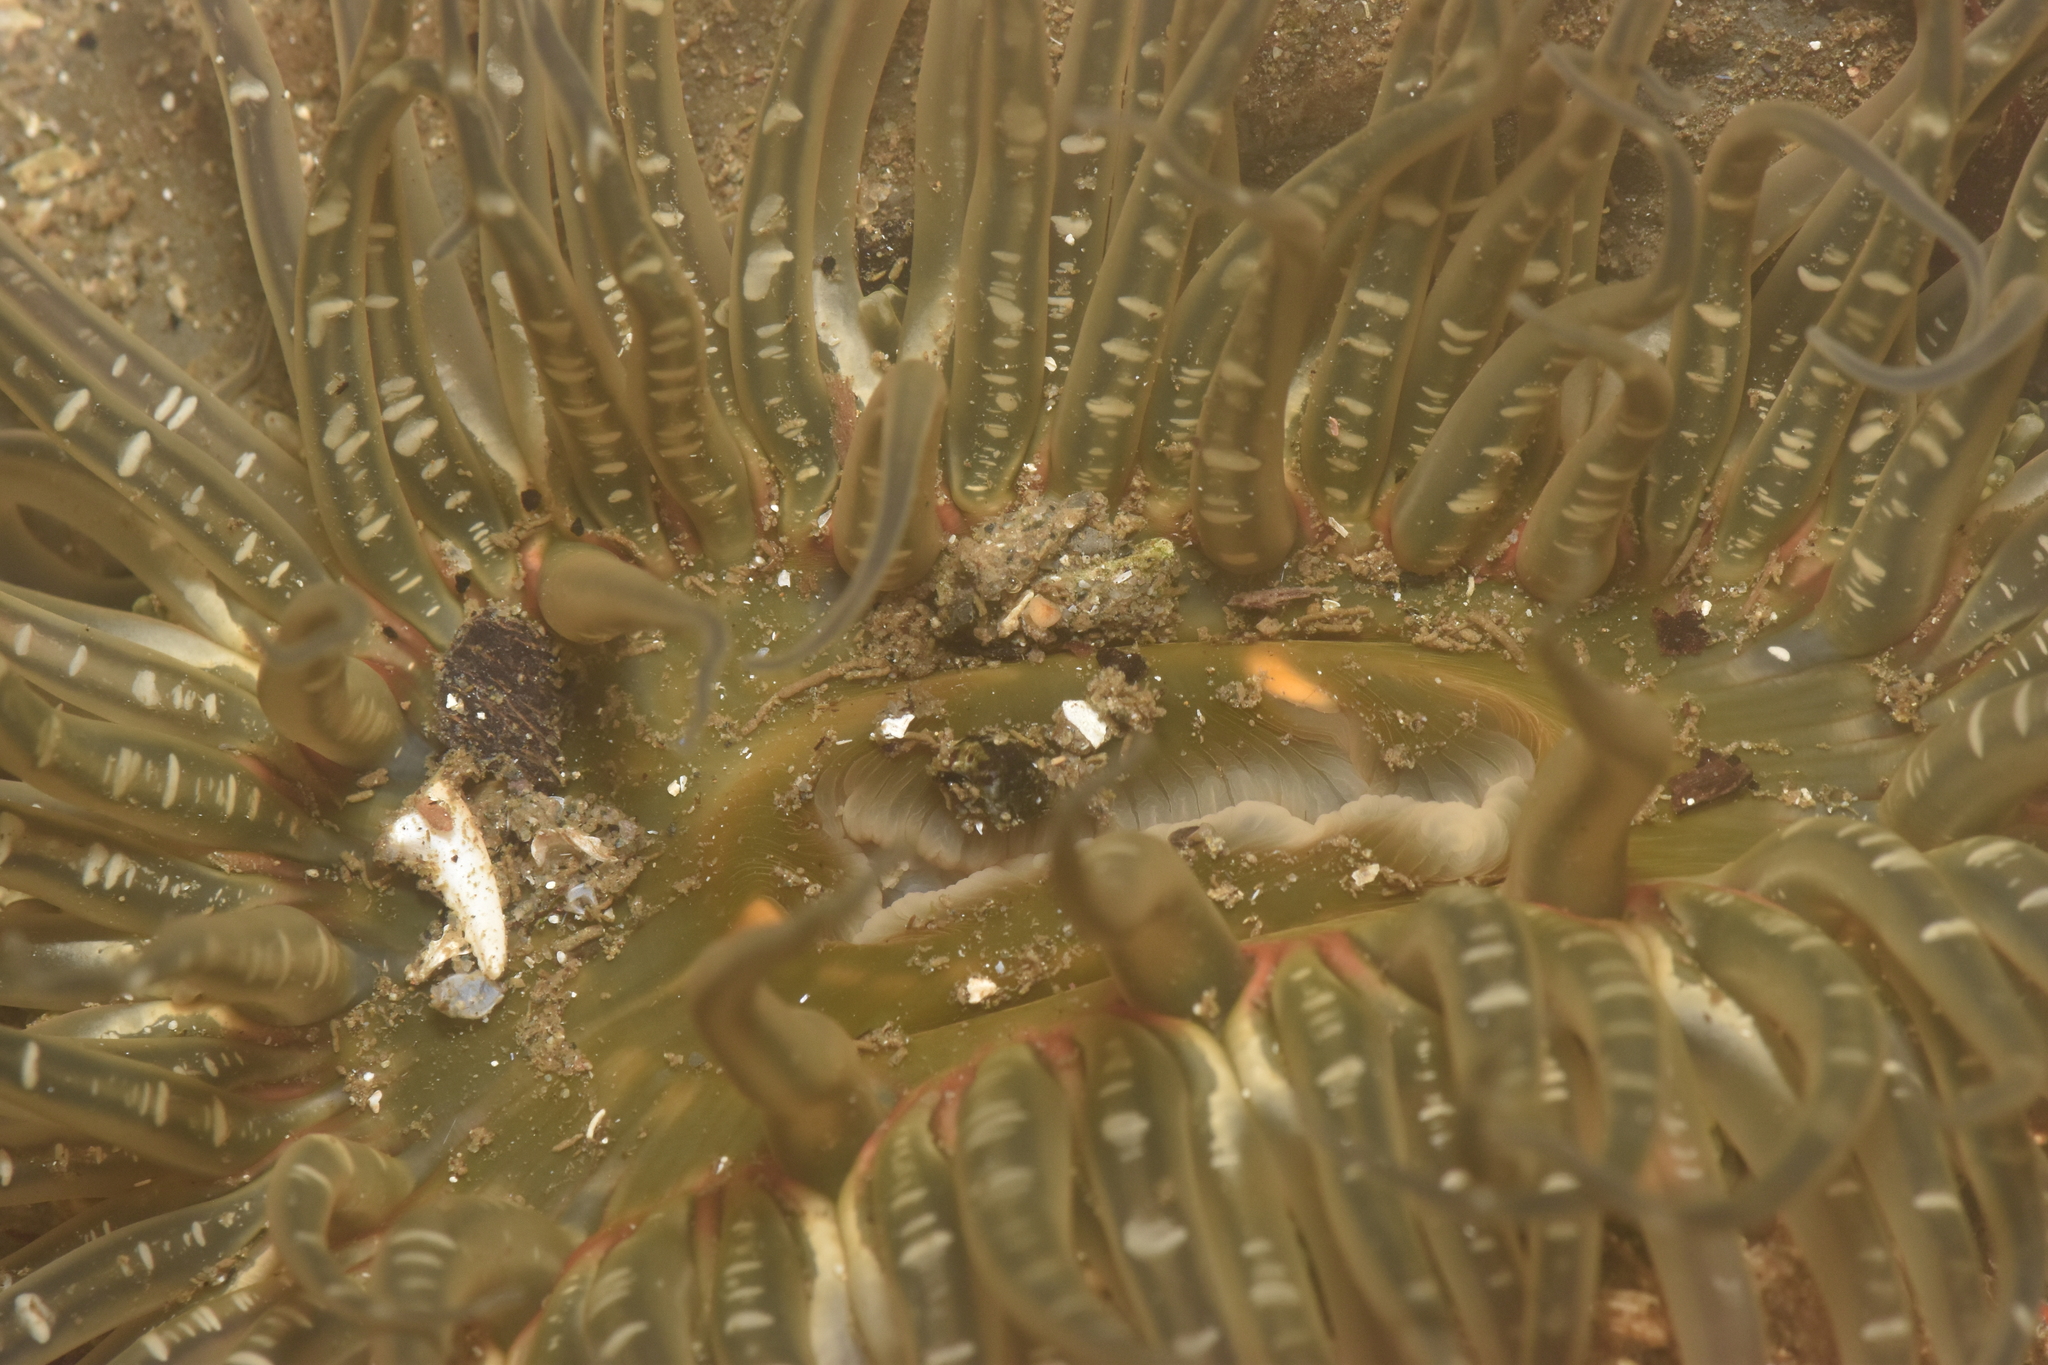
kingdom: Animalia
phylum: Cnidaria
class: Anthozoa
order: Actiniaria
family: Actiniidae
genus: Anthopleura
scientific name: Anthopleura artemisia
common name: Buried sea anemone
